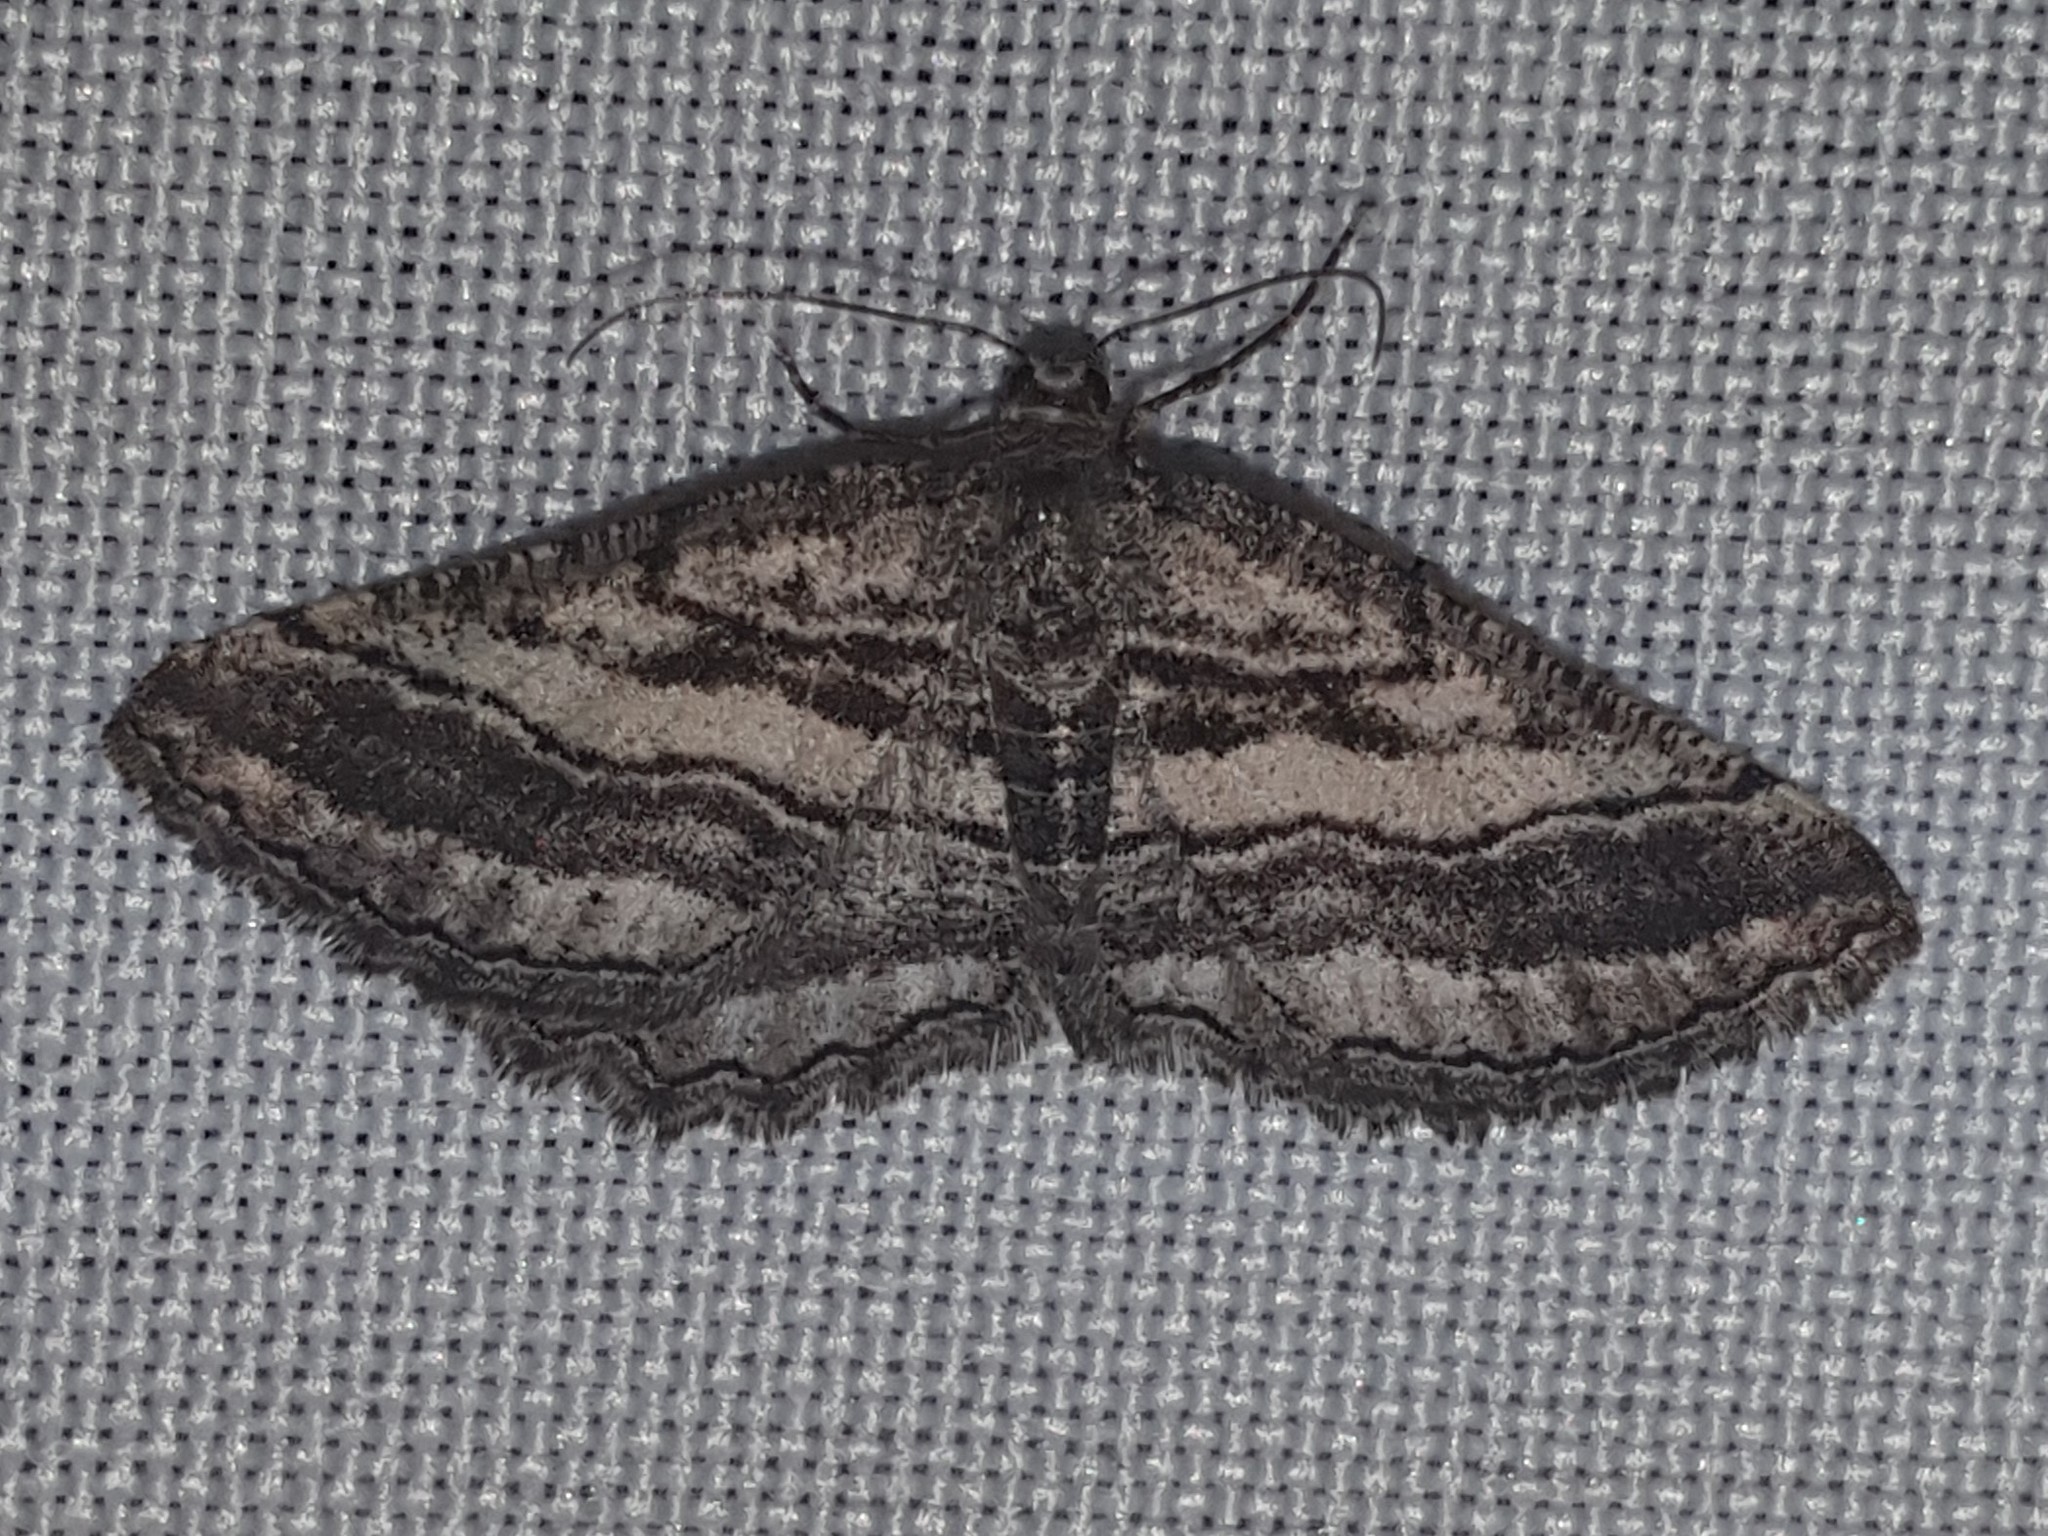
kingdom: Animalia
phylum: Arthropoda
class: Insecta
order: Lepidoptera
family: Geometridae
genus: Rhoptria
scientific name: Rhoptria asperaria
